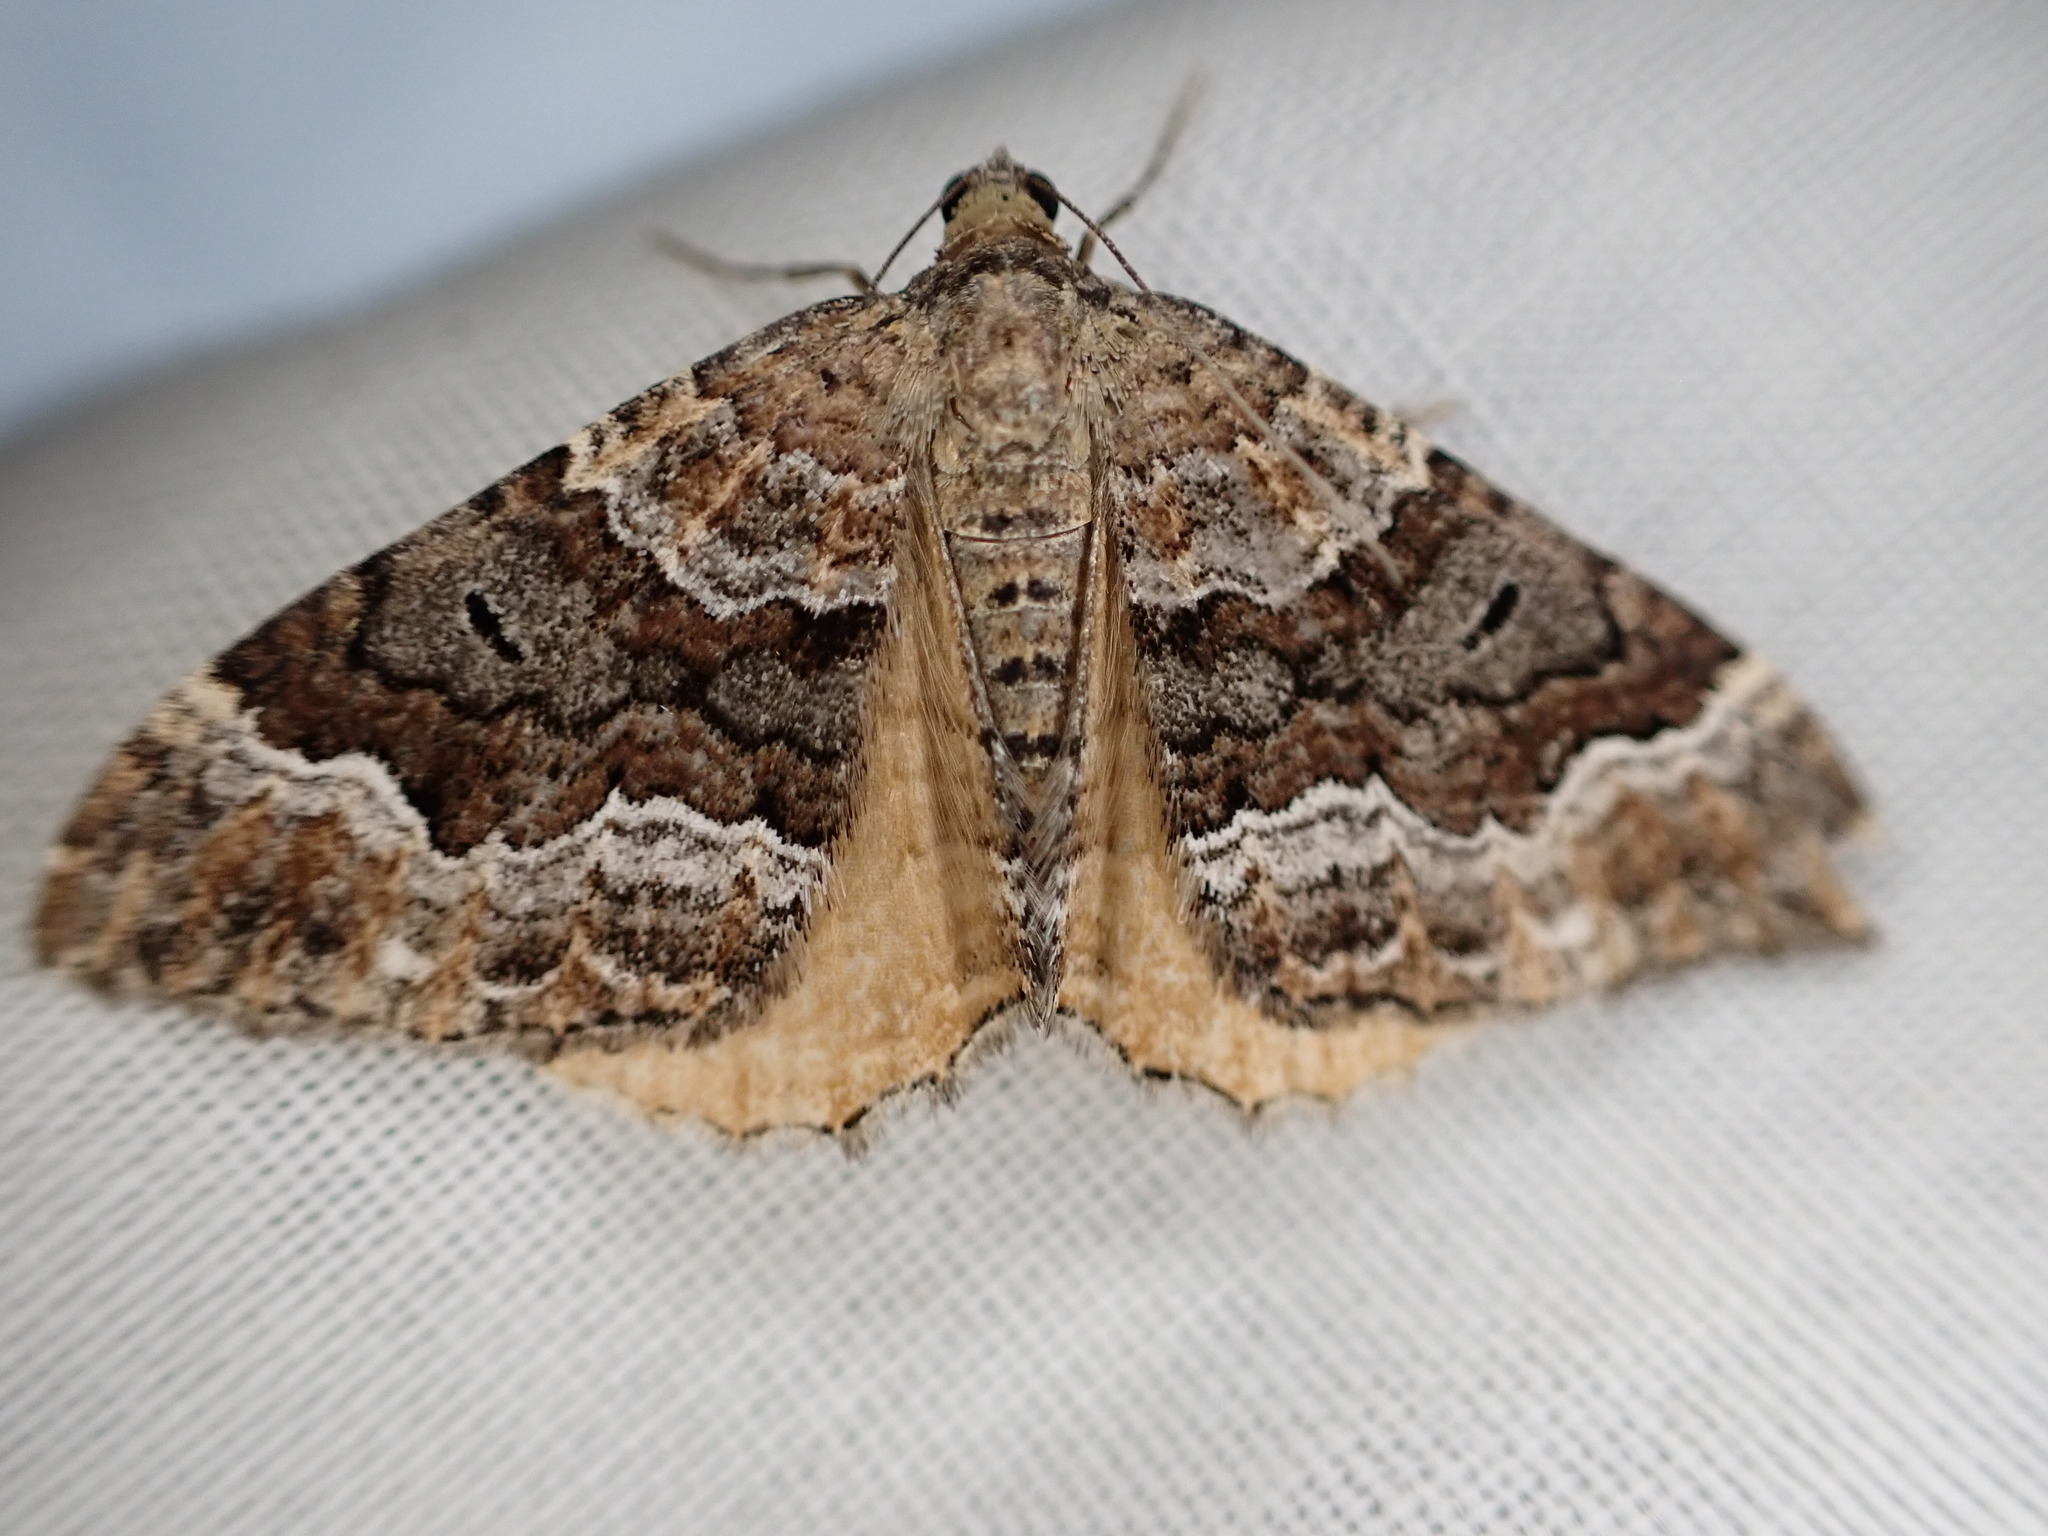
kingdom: Animalia
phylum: Arthropoda
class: Insecta
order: Lepidoptera
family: Geometridae
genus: Hydriomena
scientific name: Hydriomena deltoidata
